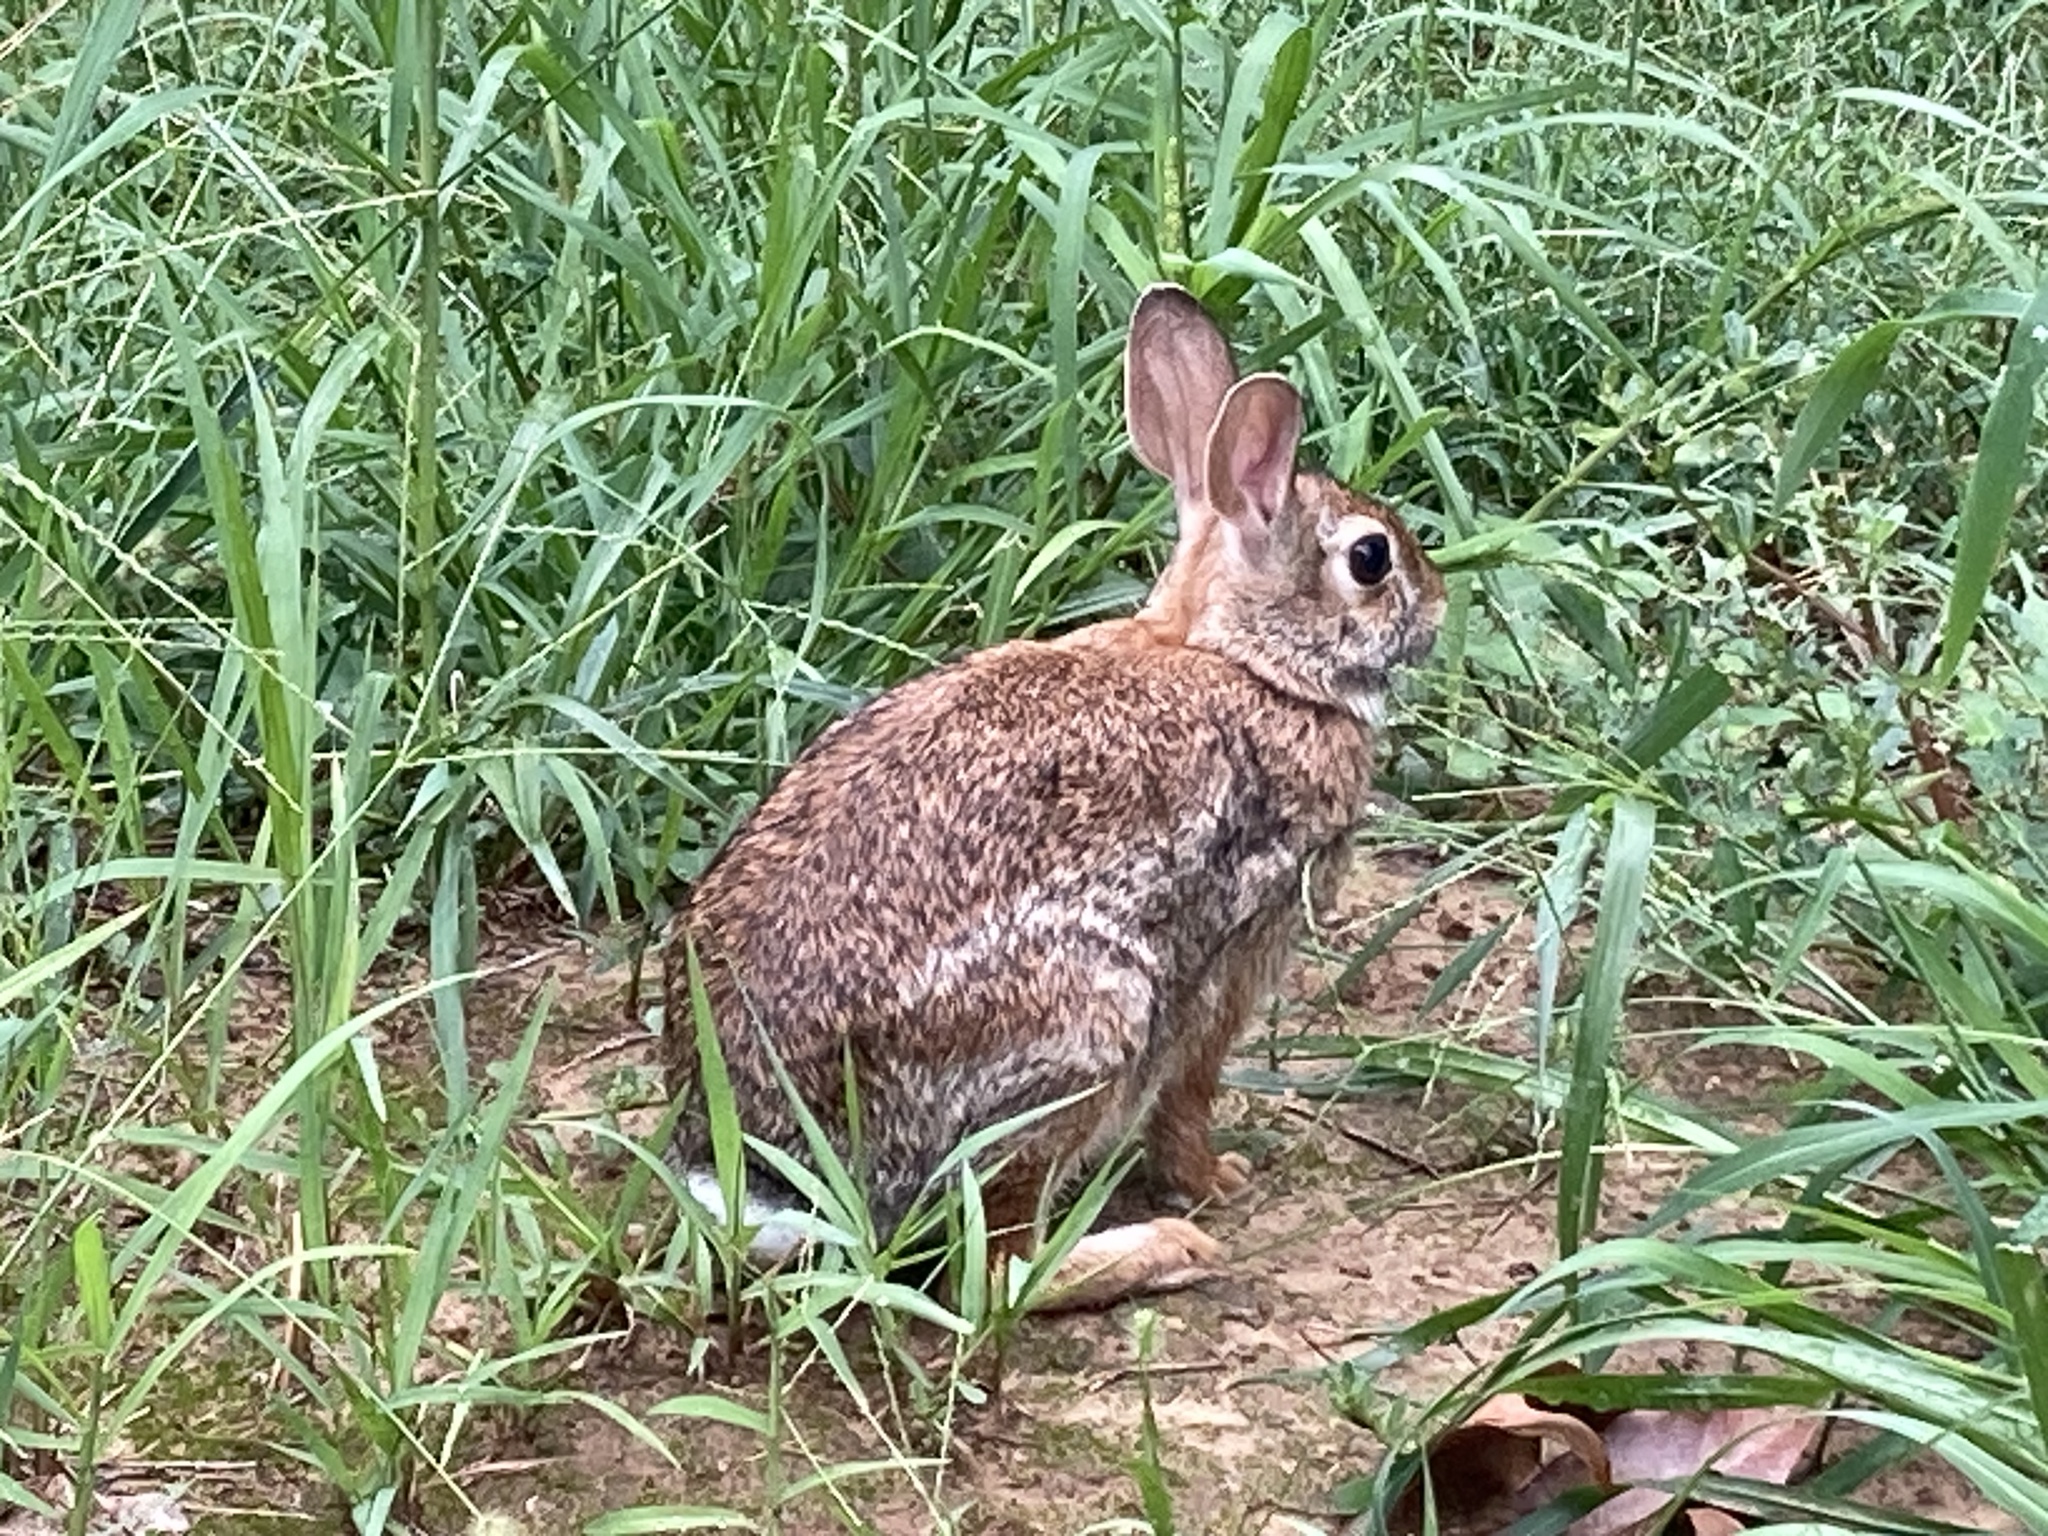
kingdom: Animalia
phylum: Chordata
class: Mammalia
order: Lagomorpha
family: Leporidae
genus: Sylvilagus
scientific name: Sylvilagus floridanus
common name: Eastern cottontail
